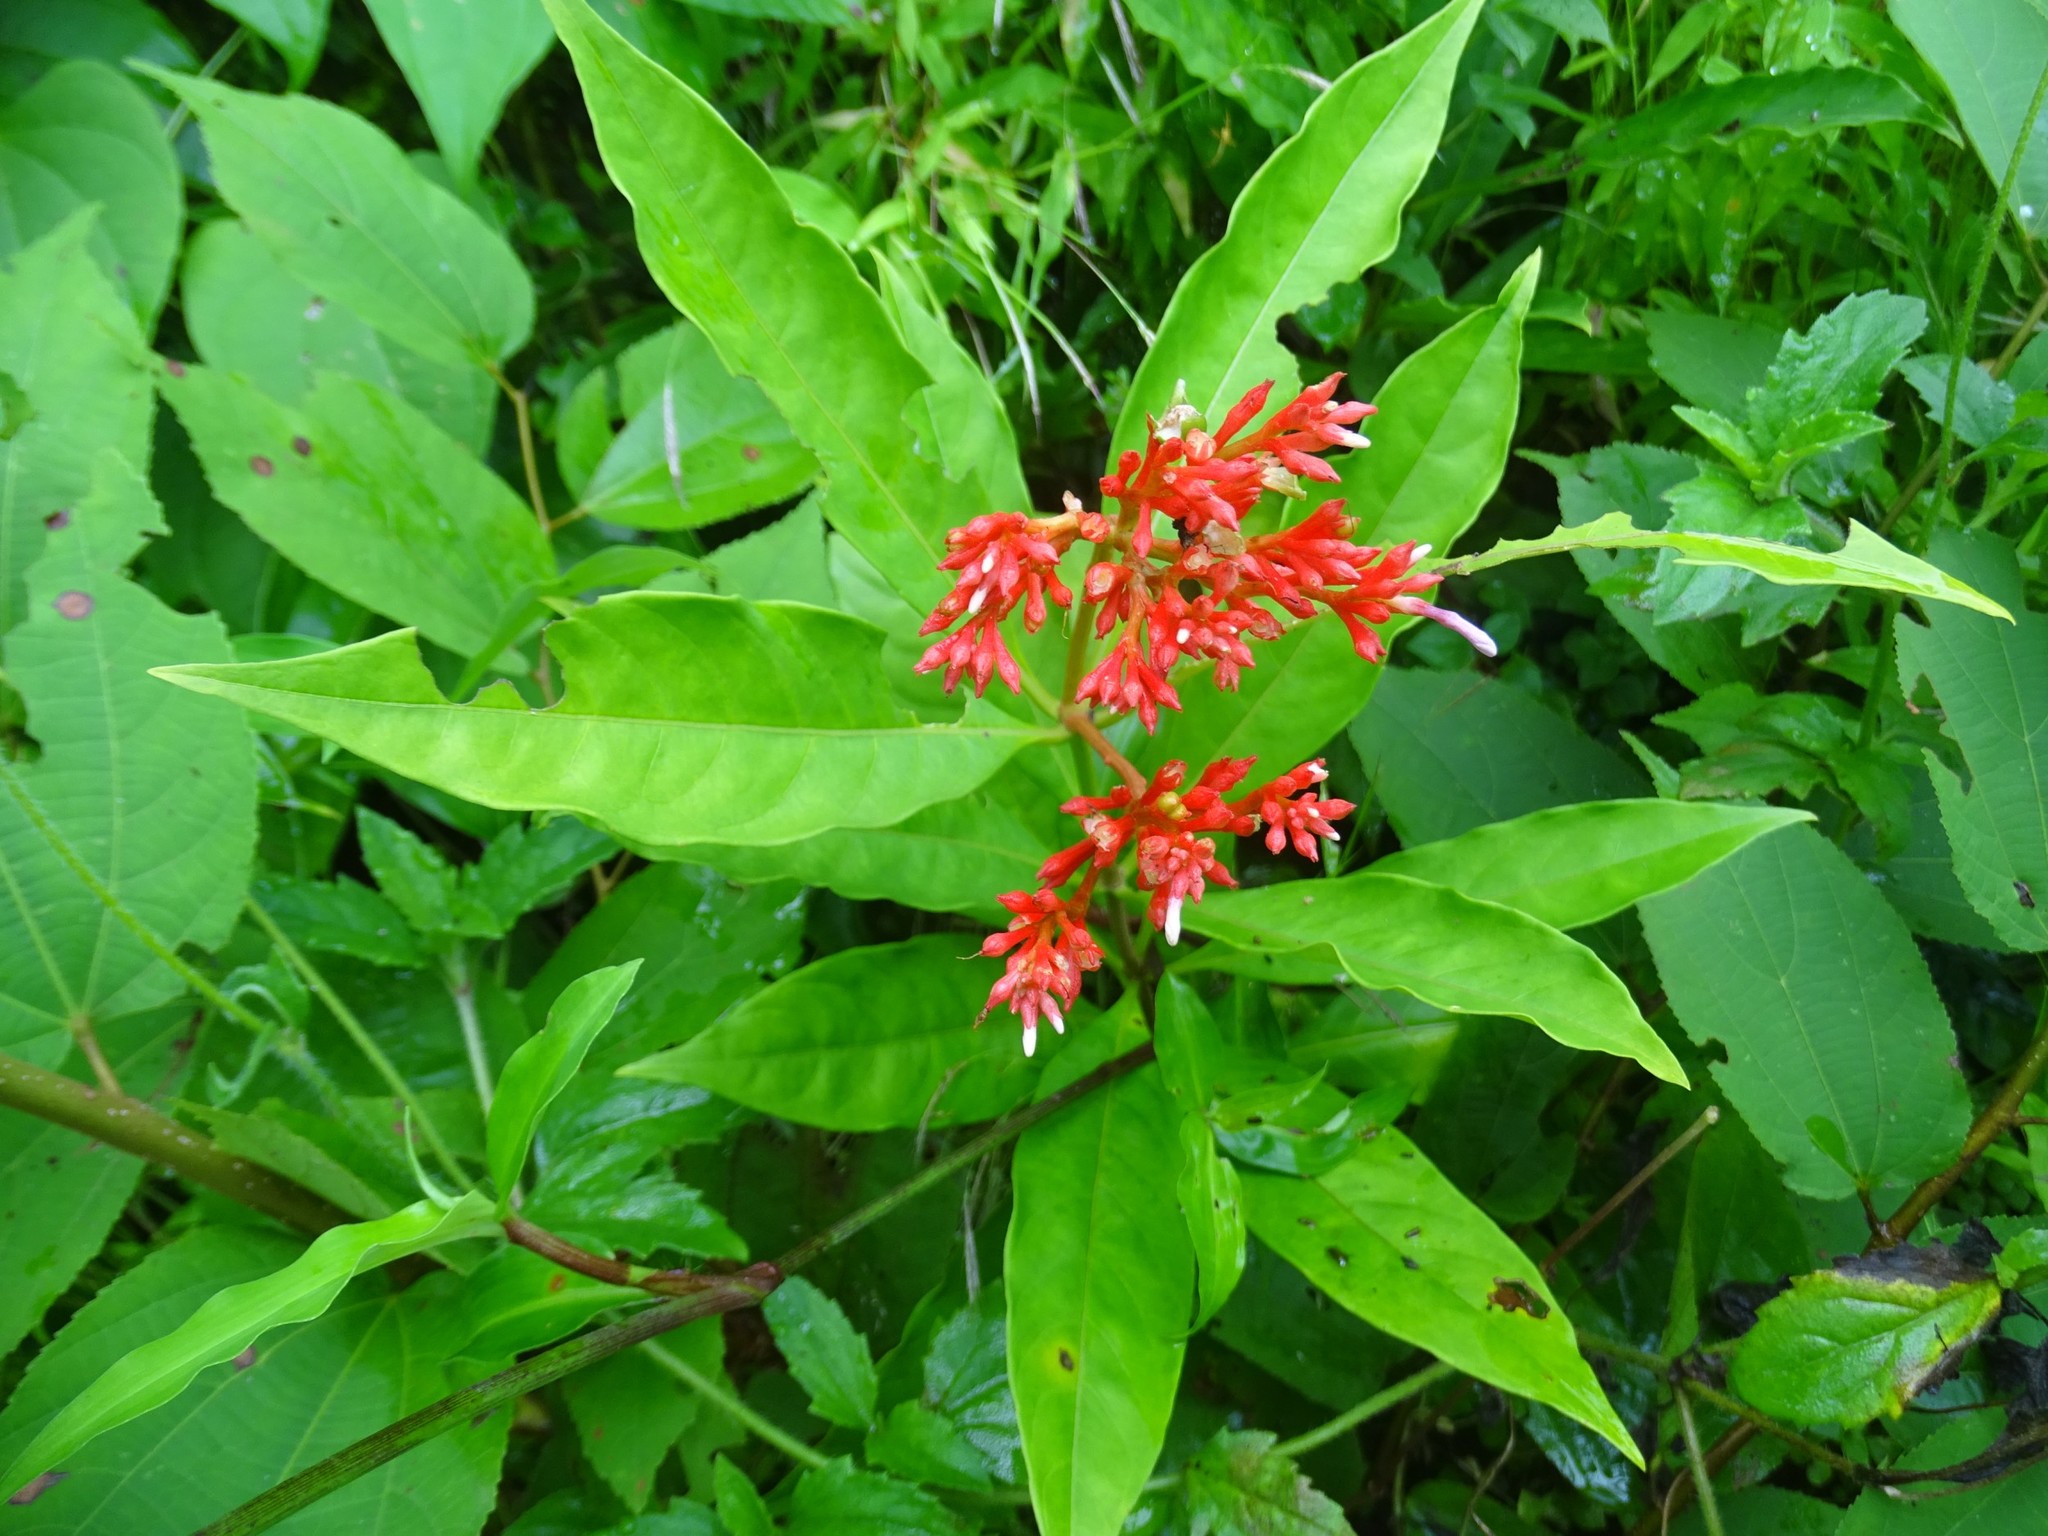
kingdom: Plantae
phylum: Tracheophyta
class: Magnoliopsida
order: Gentianales
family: Apocynaceae
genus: Rauvolfia
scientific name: Rauvolfia serpentina
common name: Ajmaline
